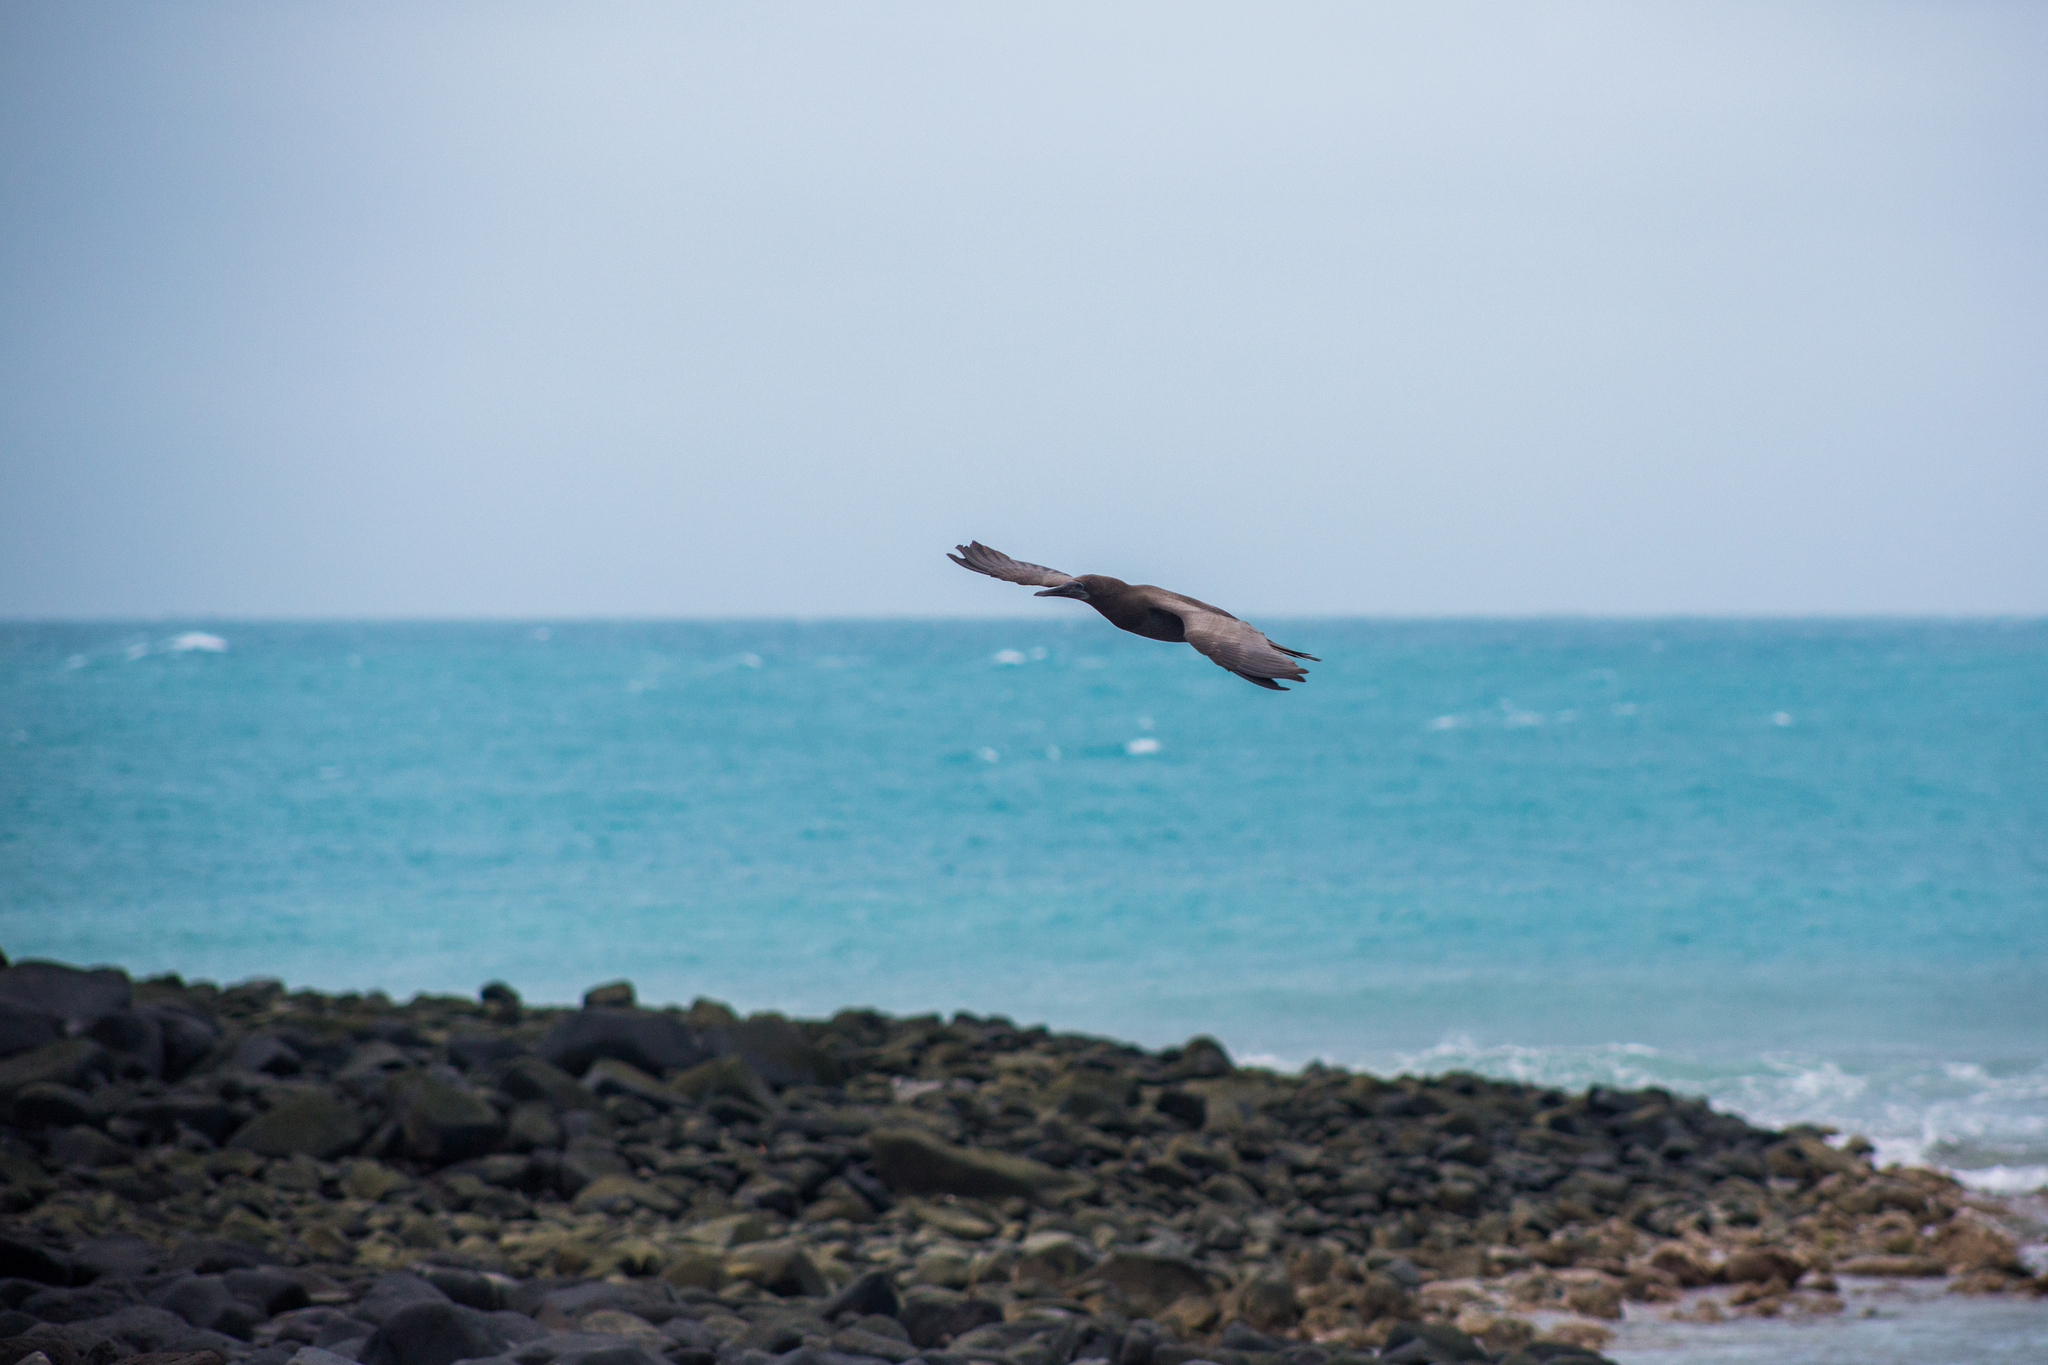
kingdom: Animalia
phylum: Chordata
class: Aves
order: Suliformes
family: Sulidae
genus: Sula
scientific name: Sula leucogaster
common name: Brown booby
